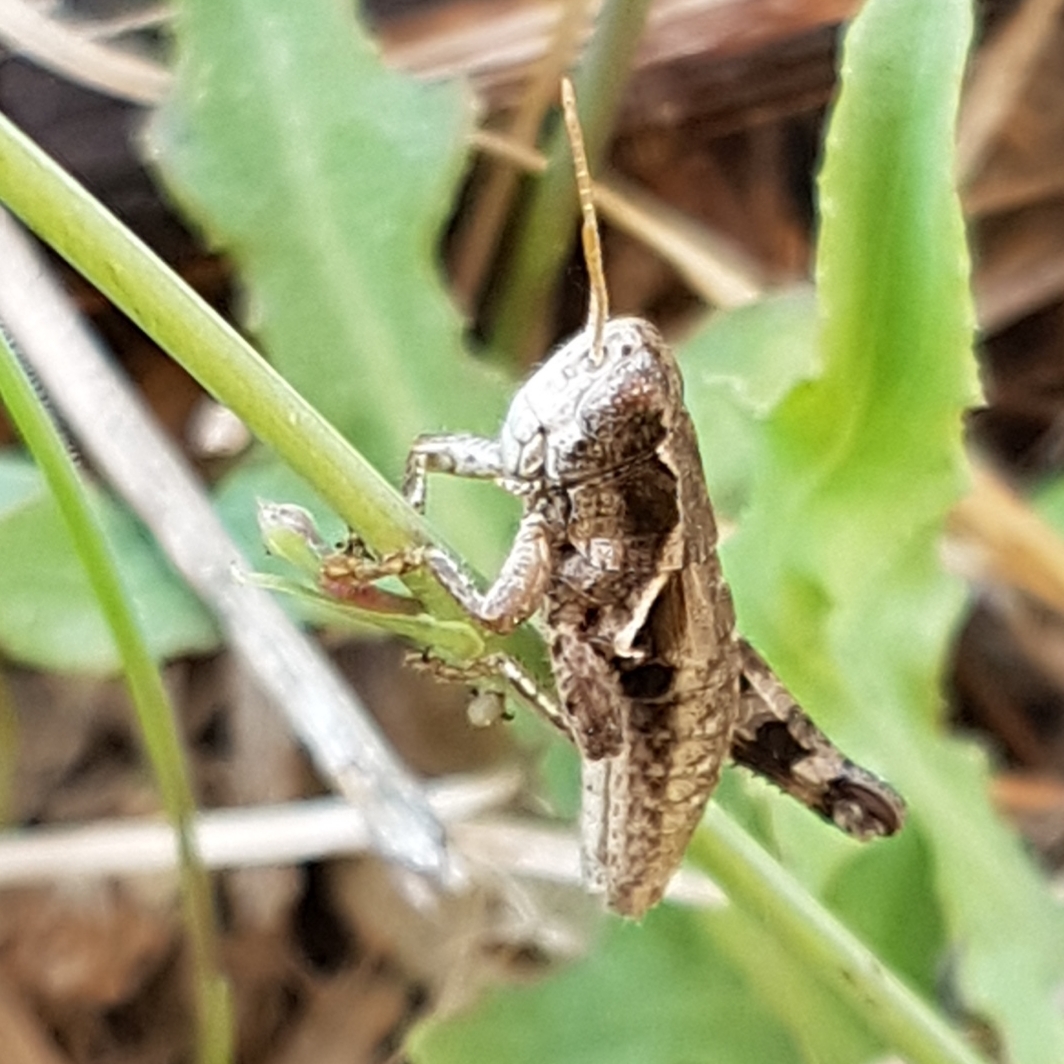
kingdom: Animalia
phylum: Arthropoda
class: Insecta
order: Orthoptera
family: Acrididae
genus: Pezotettix
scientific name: Pezotettix giornae
